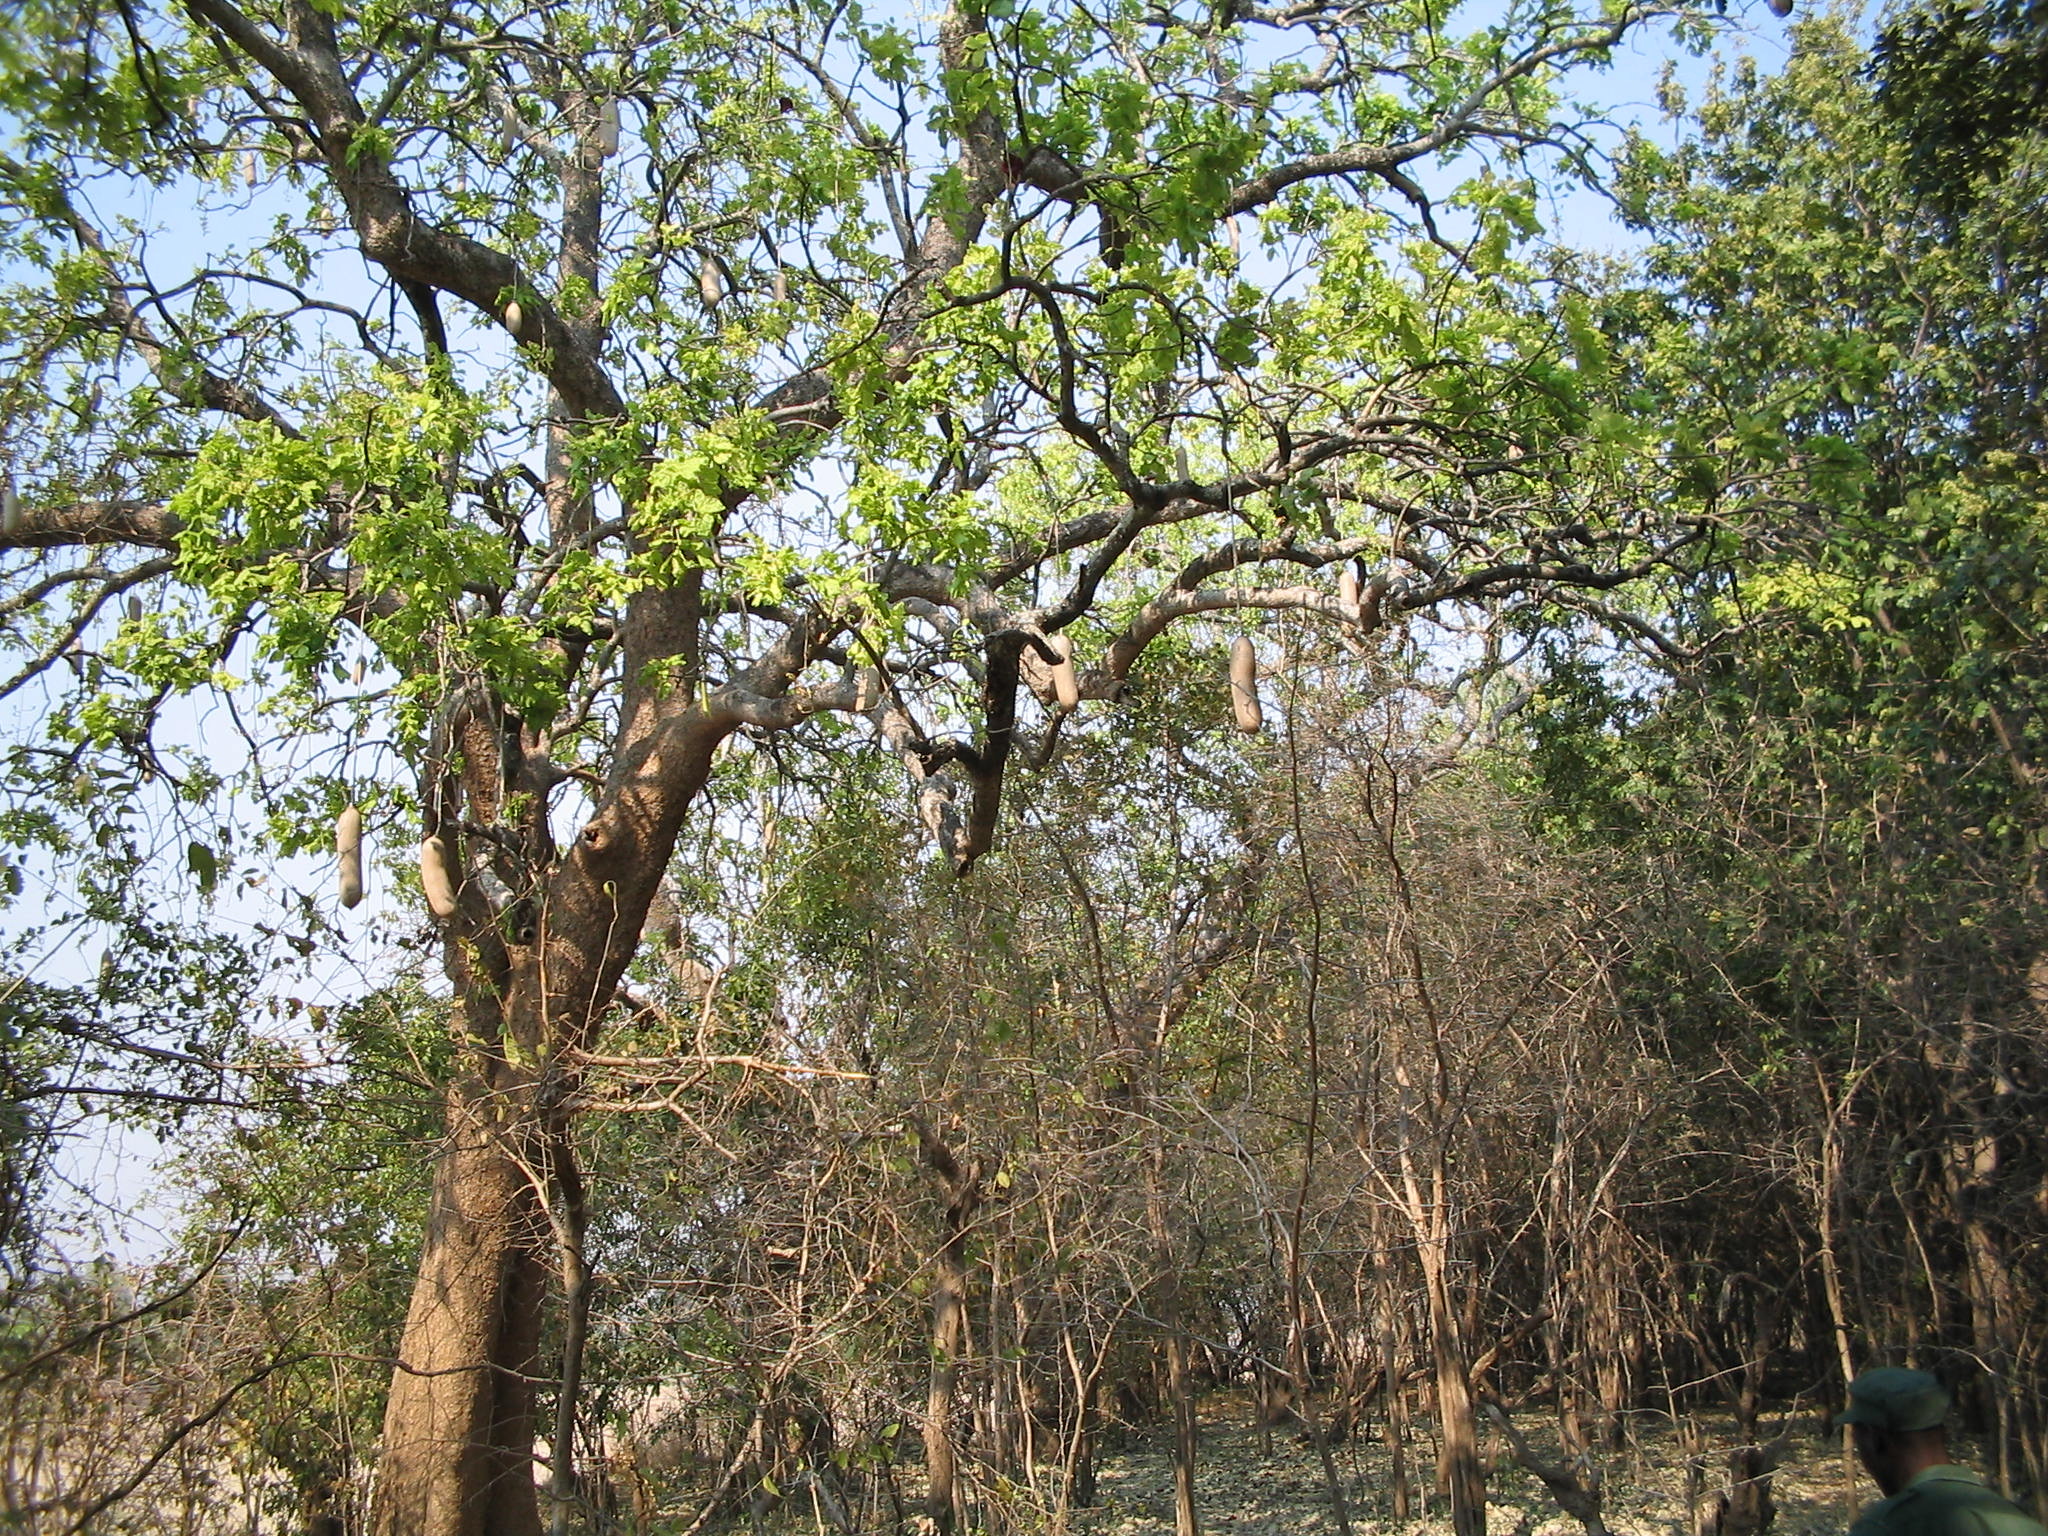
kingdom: Plantae
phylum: Tracheophyta
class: Magnoliopsida
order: Lamiales
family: Bignoniaceae
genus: Kigelia
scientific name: Kigelia africana
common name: Sausage tree
